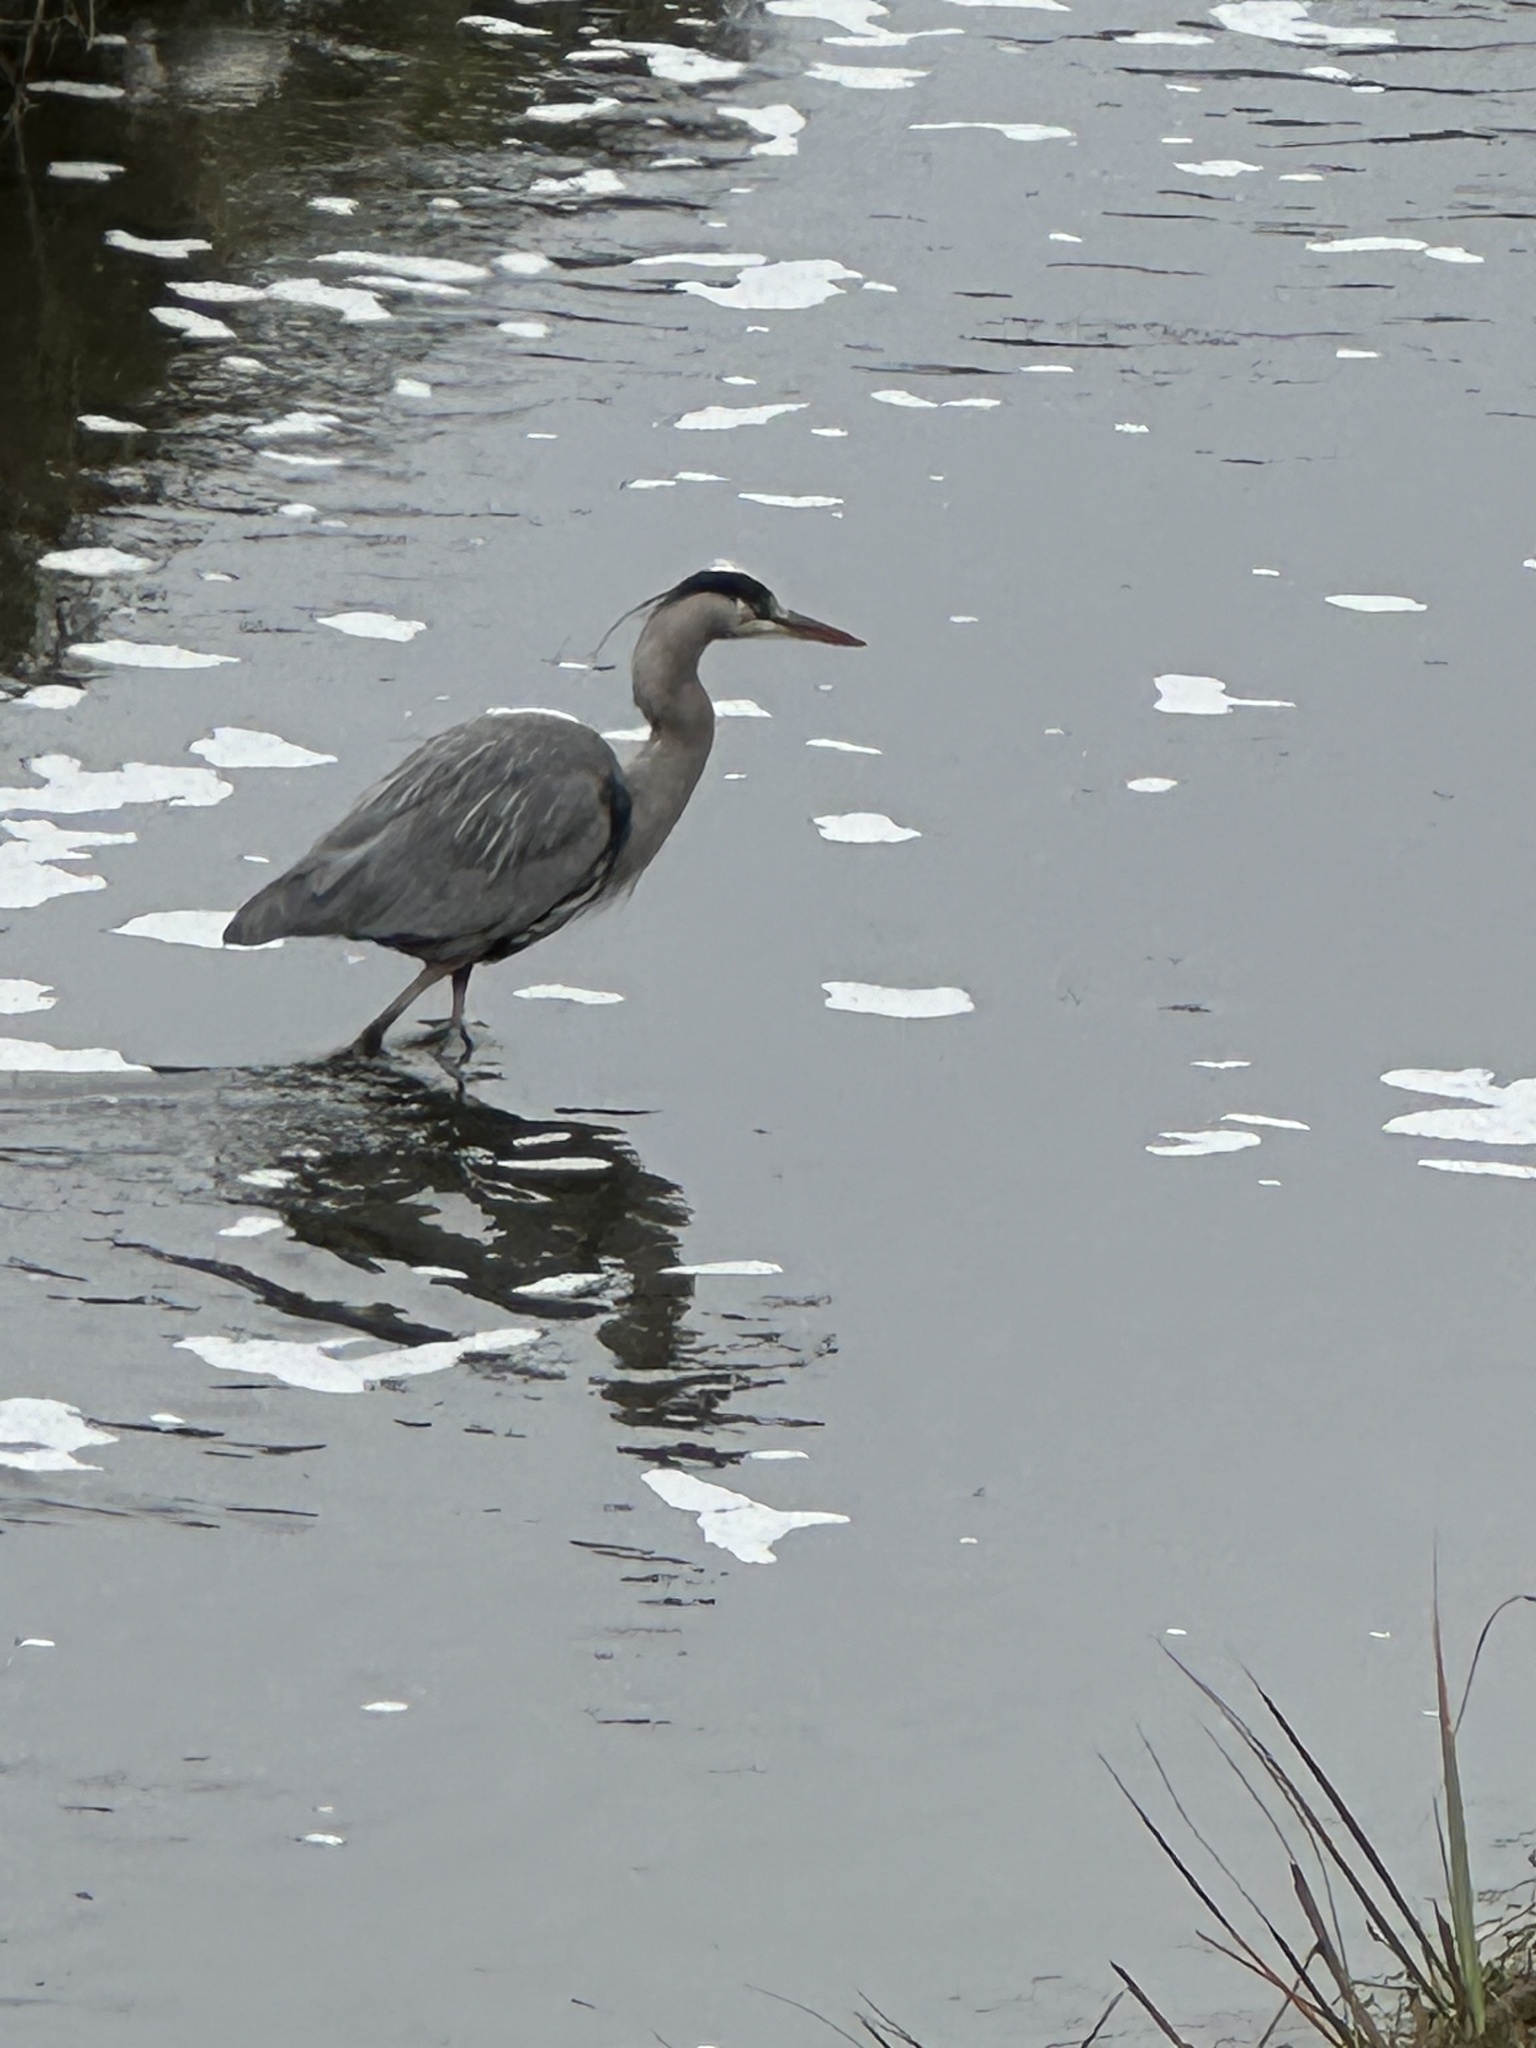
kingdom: Animalia
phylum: Chordata
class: Aves
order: Pelecaniformes
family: Ardeidae
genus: Ardea
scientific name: Ardea herodias
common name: Great blue heron
